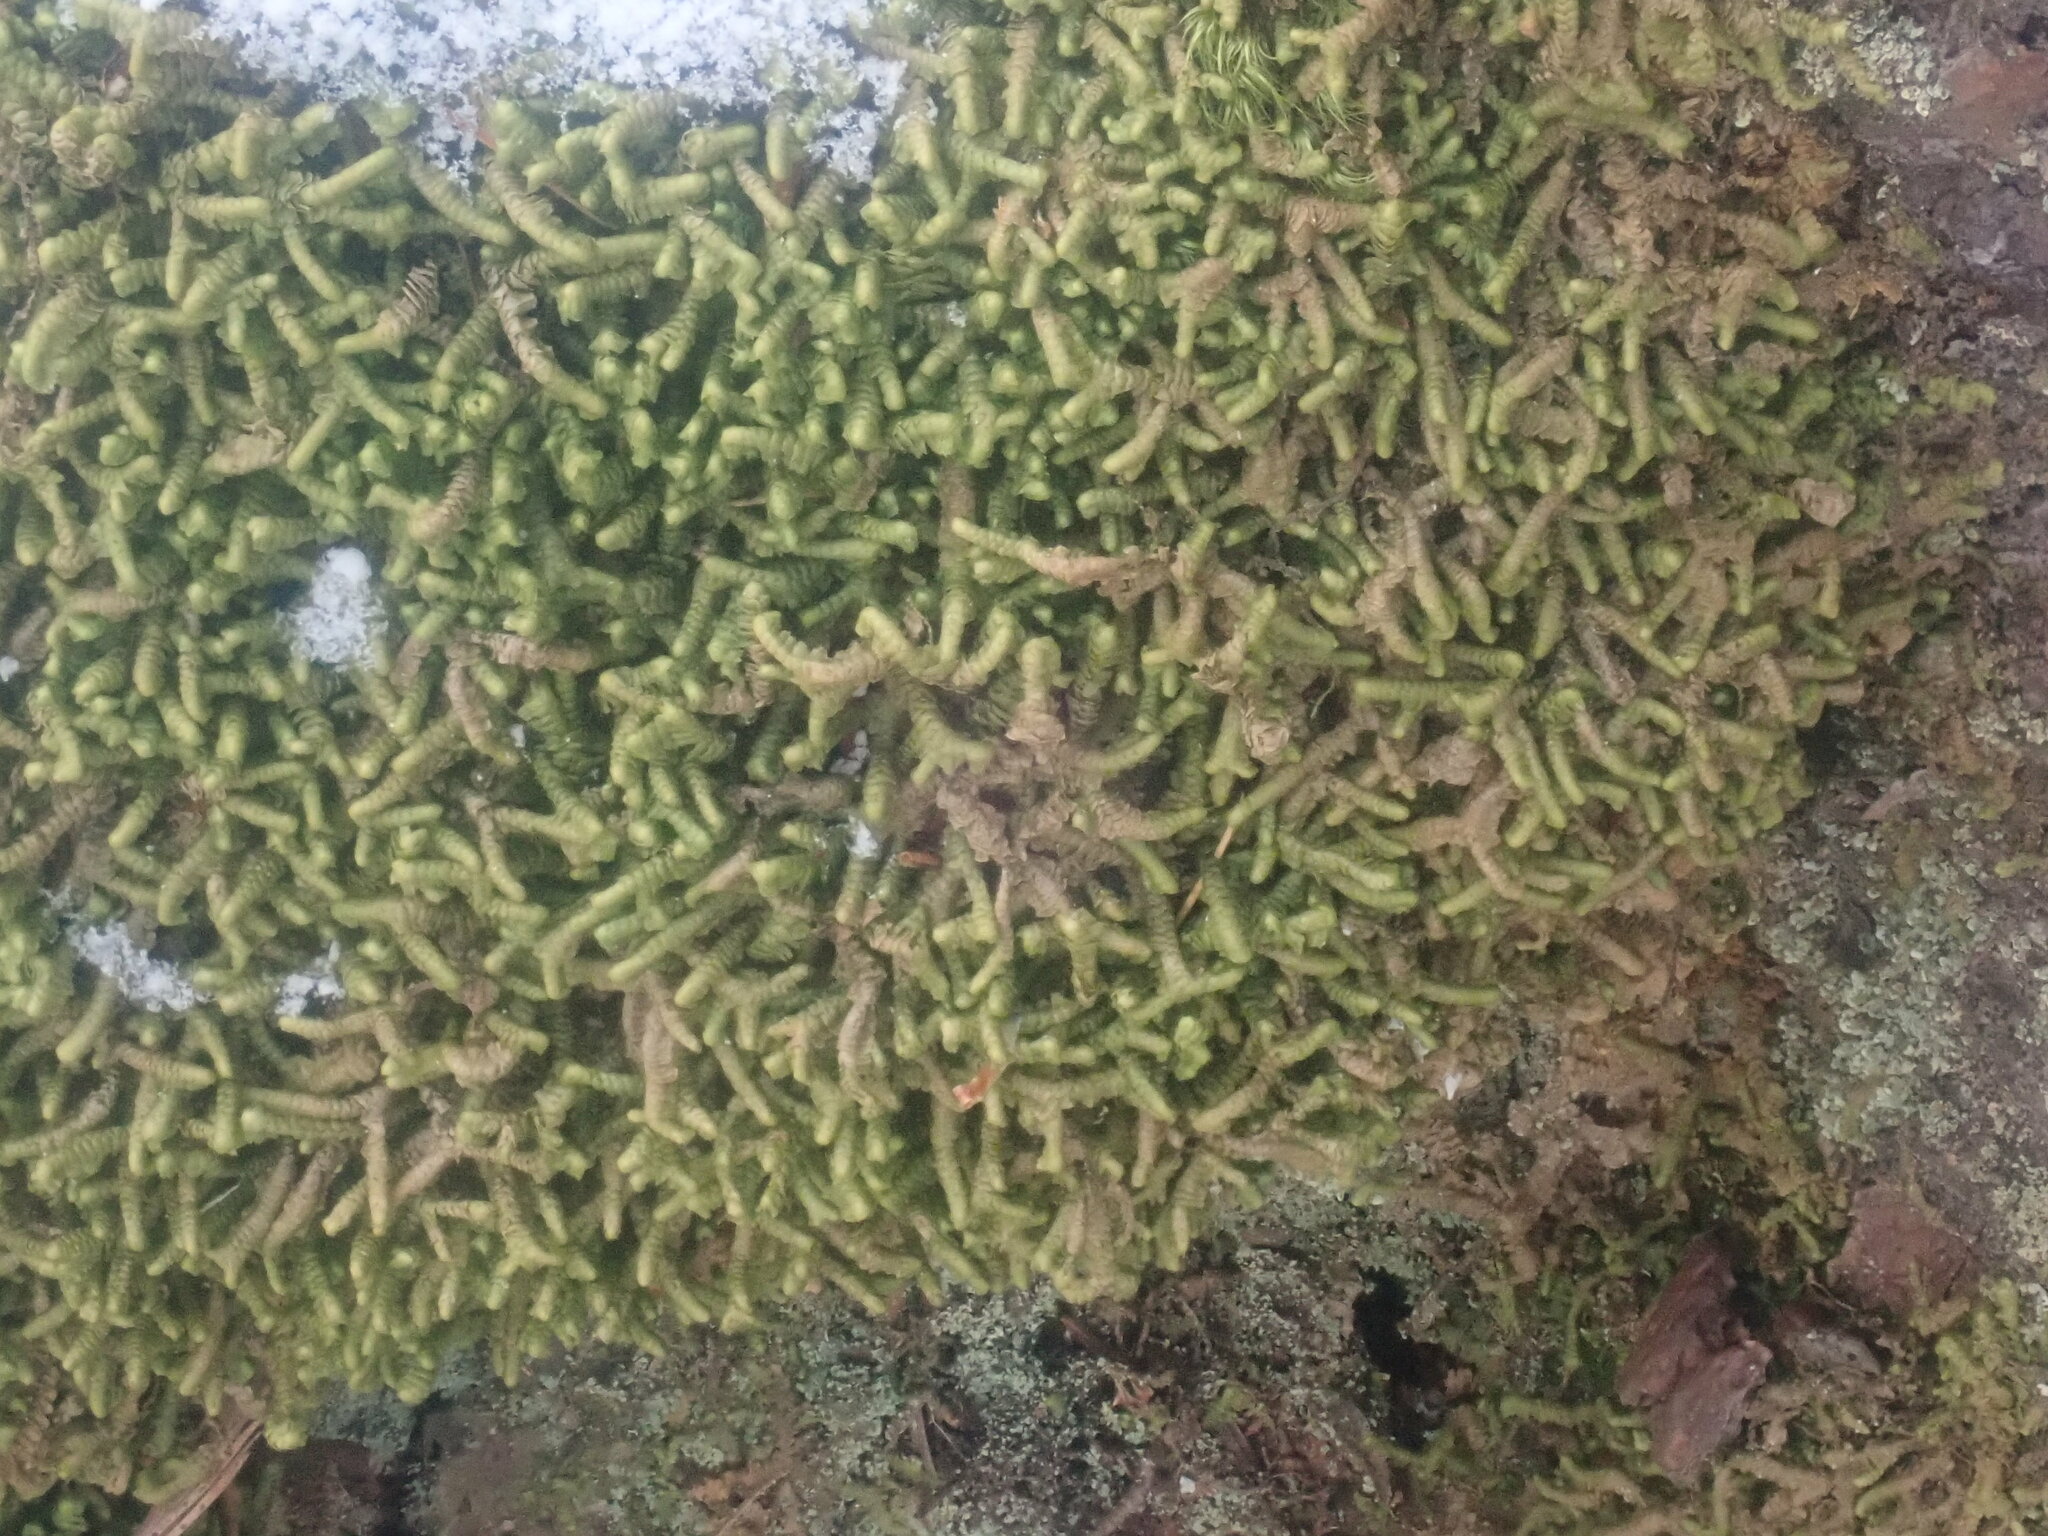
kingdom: Plantae
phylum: Marchantiophyta
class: Jungermanniopsida
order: Jungermanniales
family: Lepidoziaceae
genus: Bazzania
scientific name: Bazzania trilobata
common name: Three-lobed whipwort
